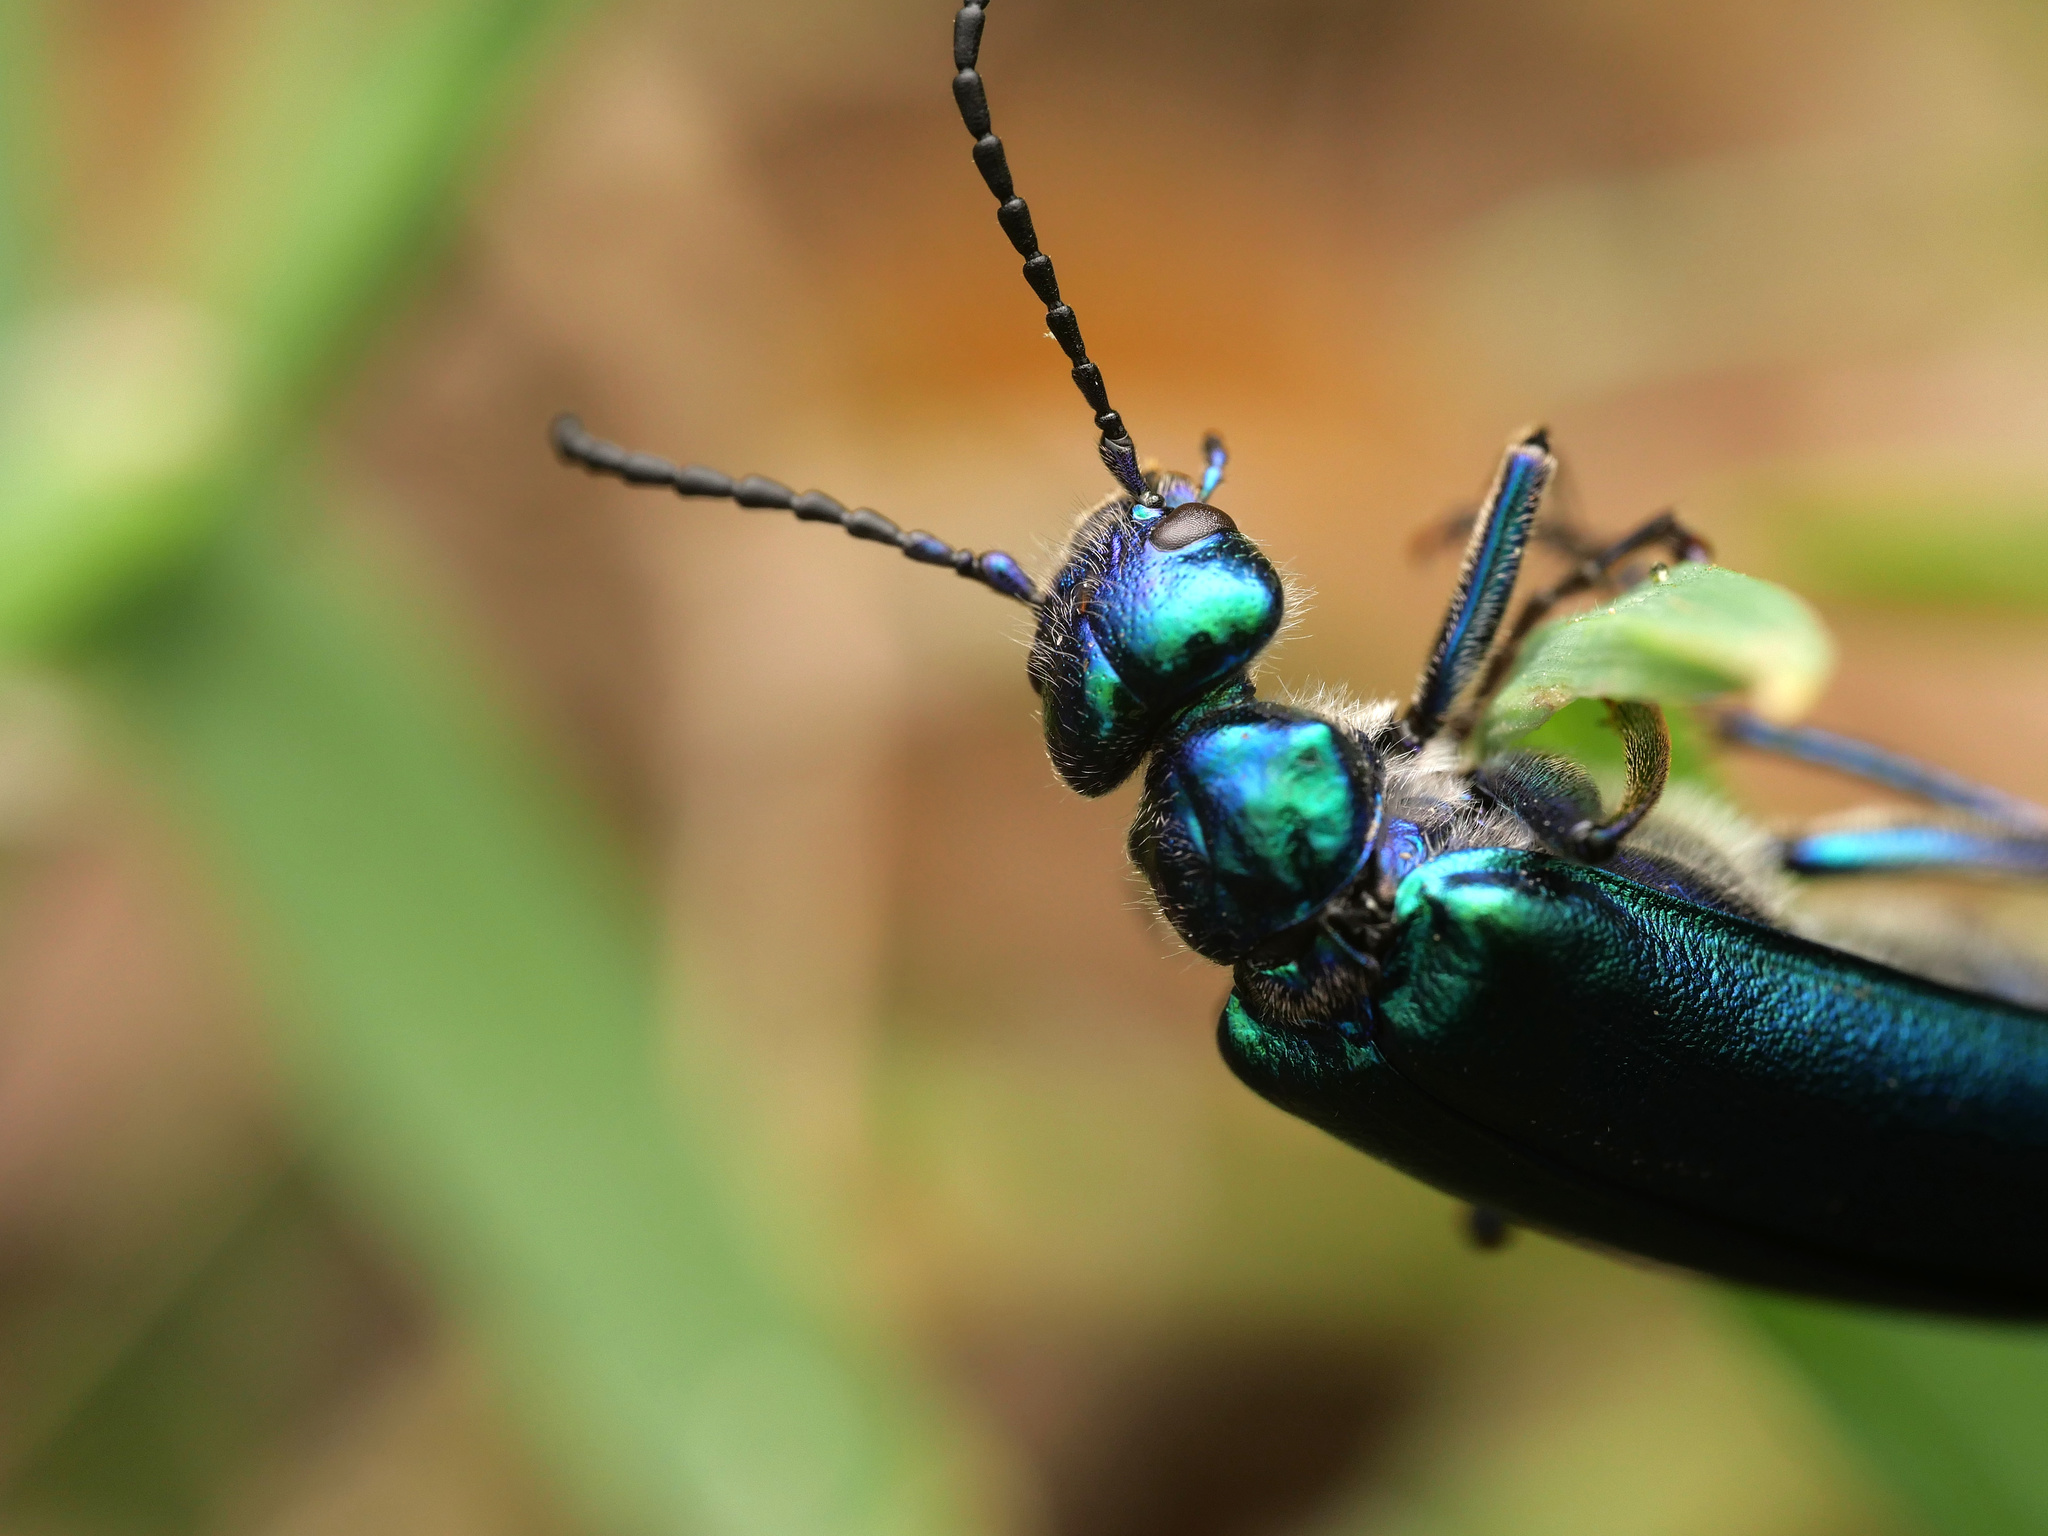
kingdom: Animalia
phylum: Arthropoda
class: Insecta
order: Coleoptera
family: Meloidae
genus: Lytta
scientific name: Lytta vesicatoria
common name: Spanish fly
